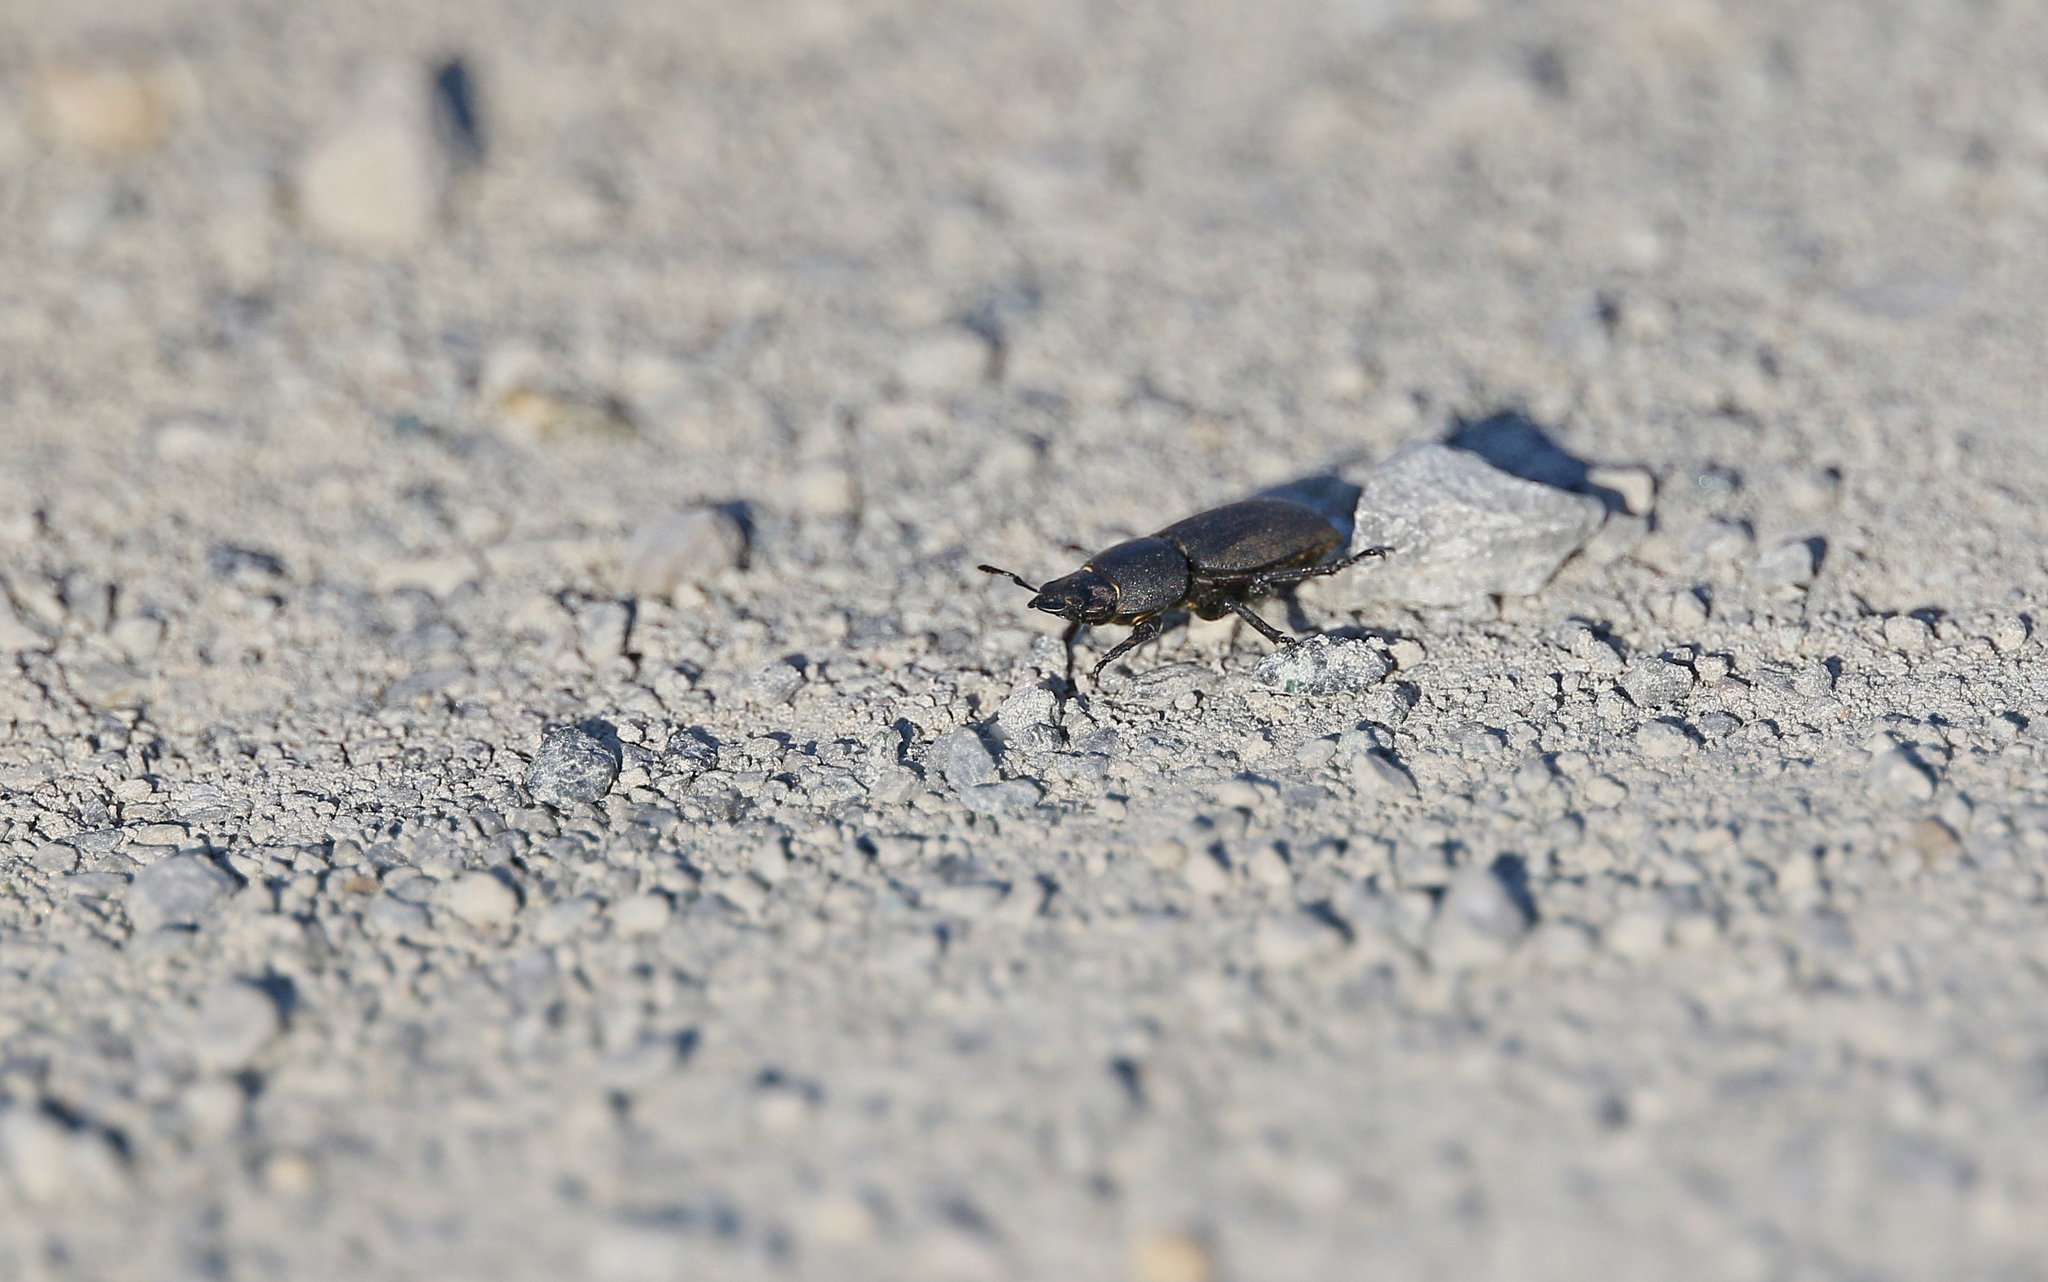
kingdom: Animalia
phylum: Arthropoda
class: Insecta
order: Coleoptera
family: Lucanidae
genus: Dorcus
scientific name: Dorcus parallelipipedus
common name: Lesser stag beetle
